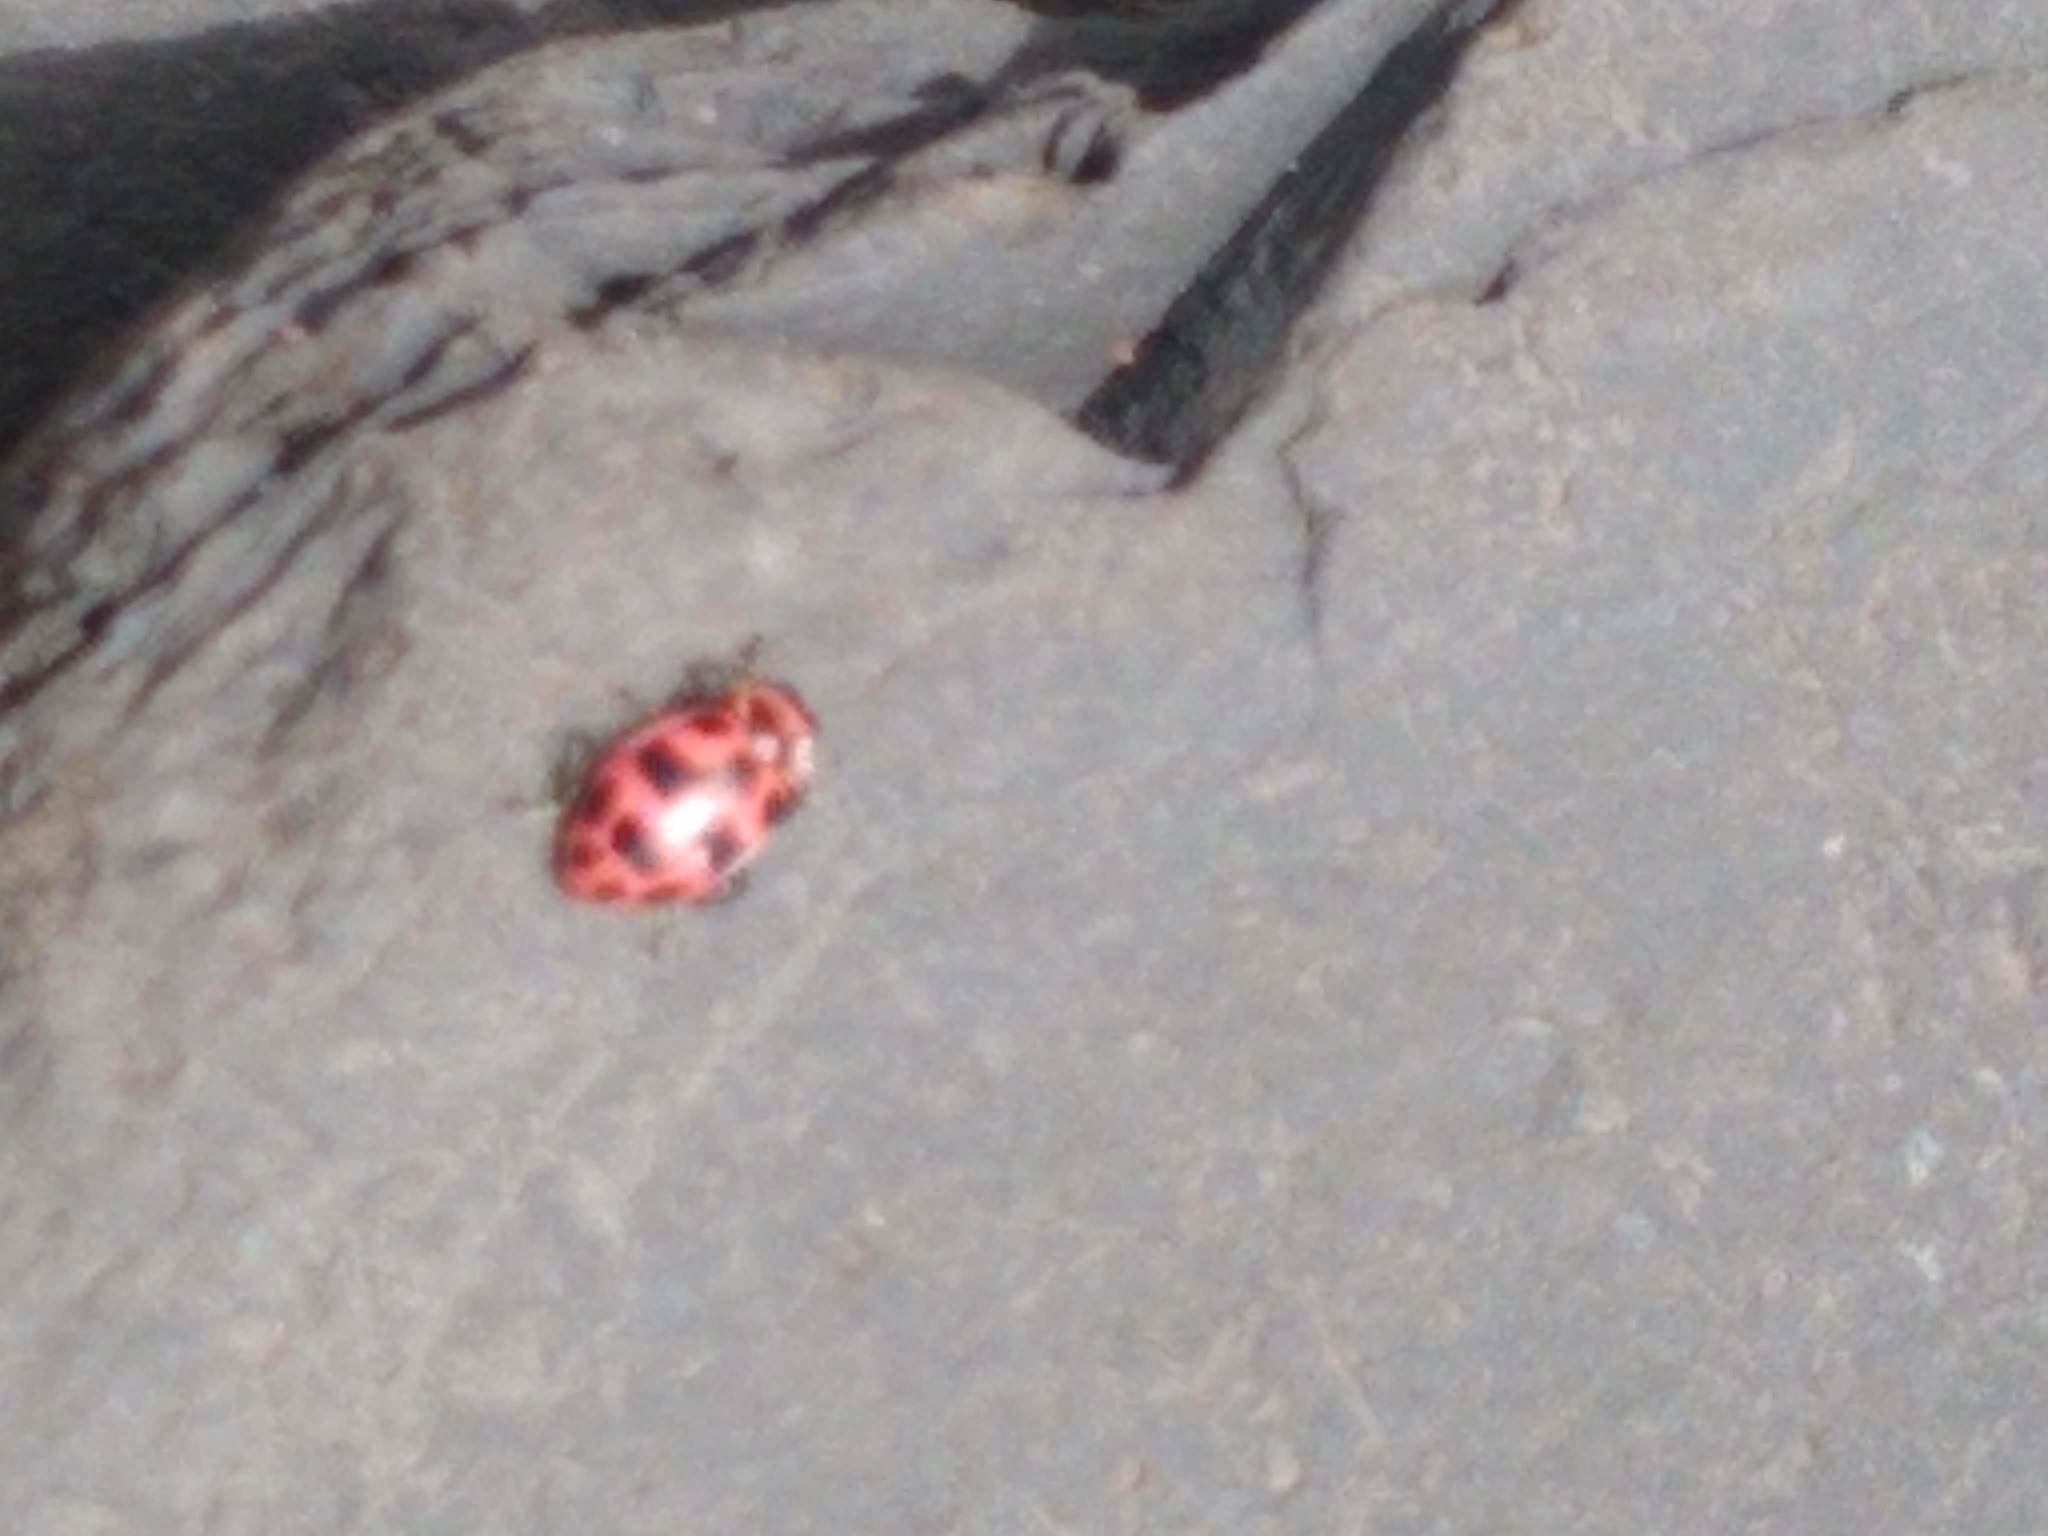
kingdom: Animalia
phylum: Arthropoda
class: Insecta
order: Coleoptera
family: Coccinellidae
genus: Coleomegilla
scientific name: Coleomegilla maculata
